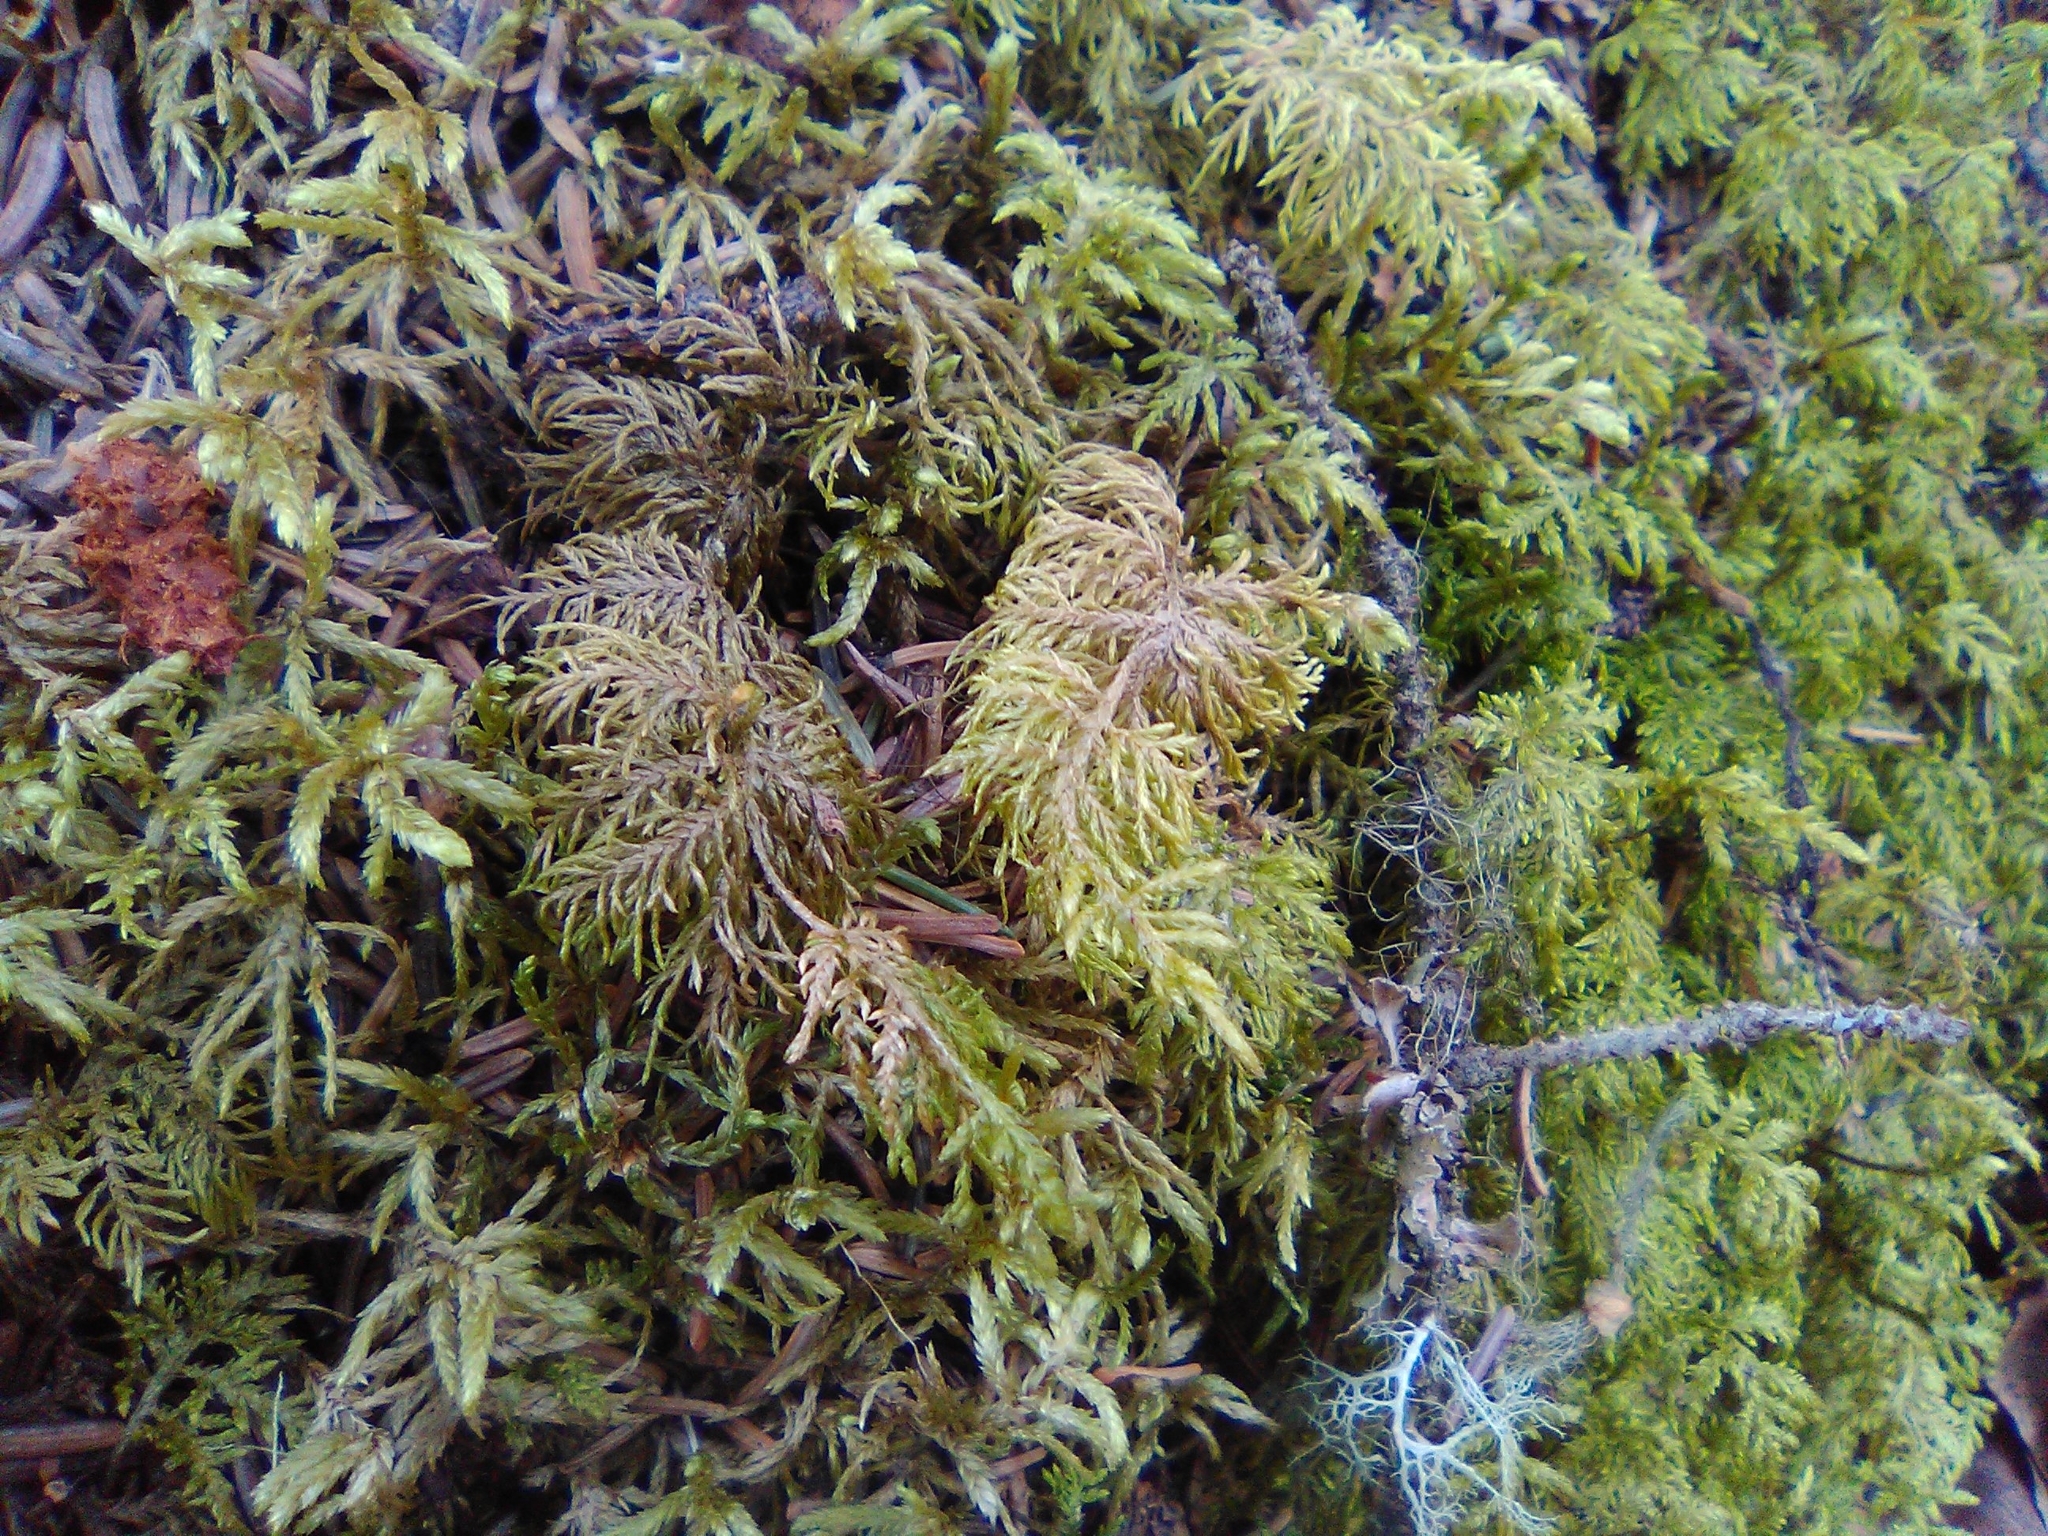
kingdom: Plantae
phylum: Bryophyta
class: Bryopsida
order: Hypnales
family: Hylocomiaceae
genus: Hylocomium
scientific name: Hylocomium splendens
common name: Stairstep moss
